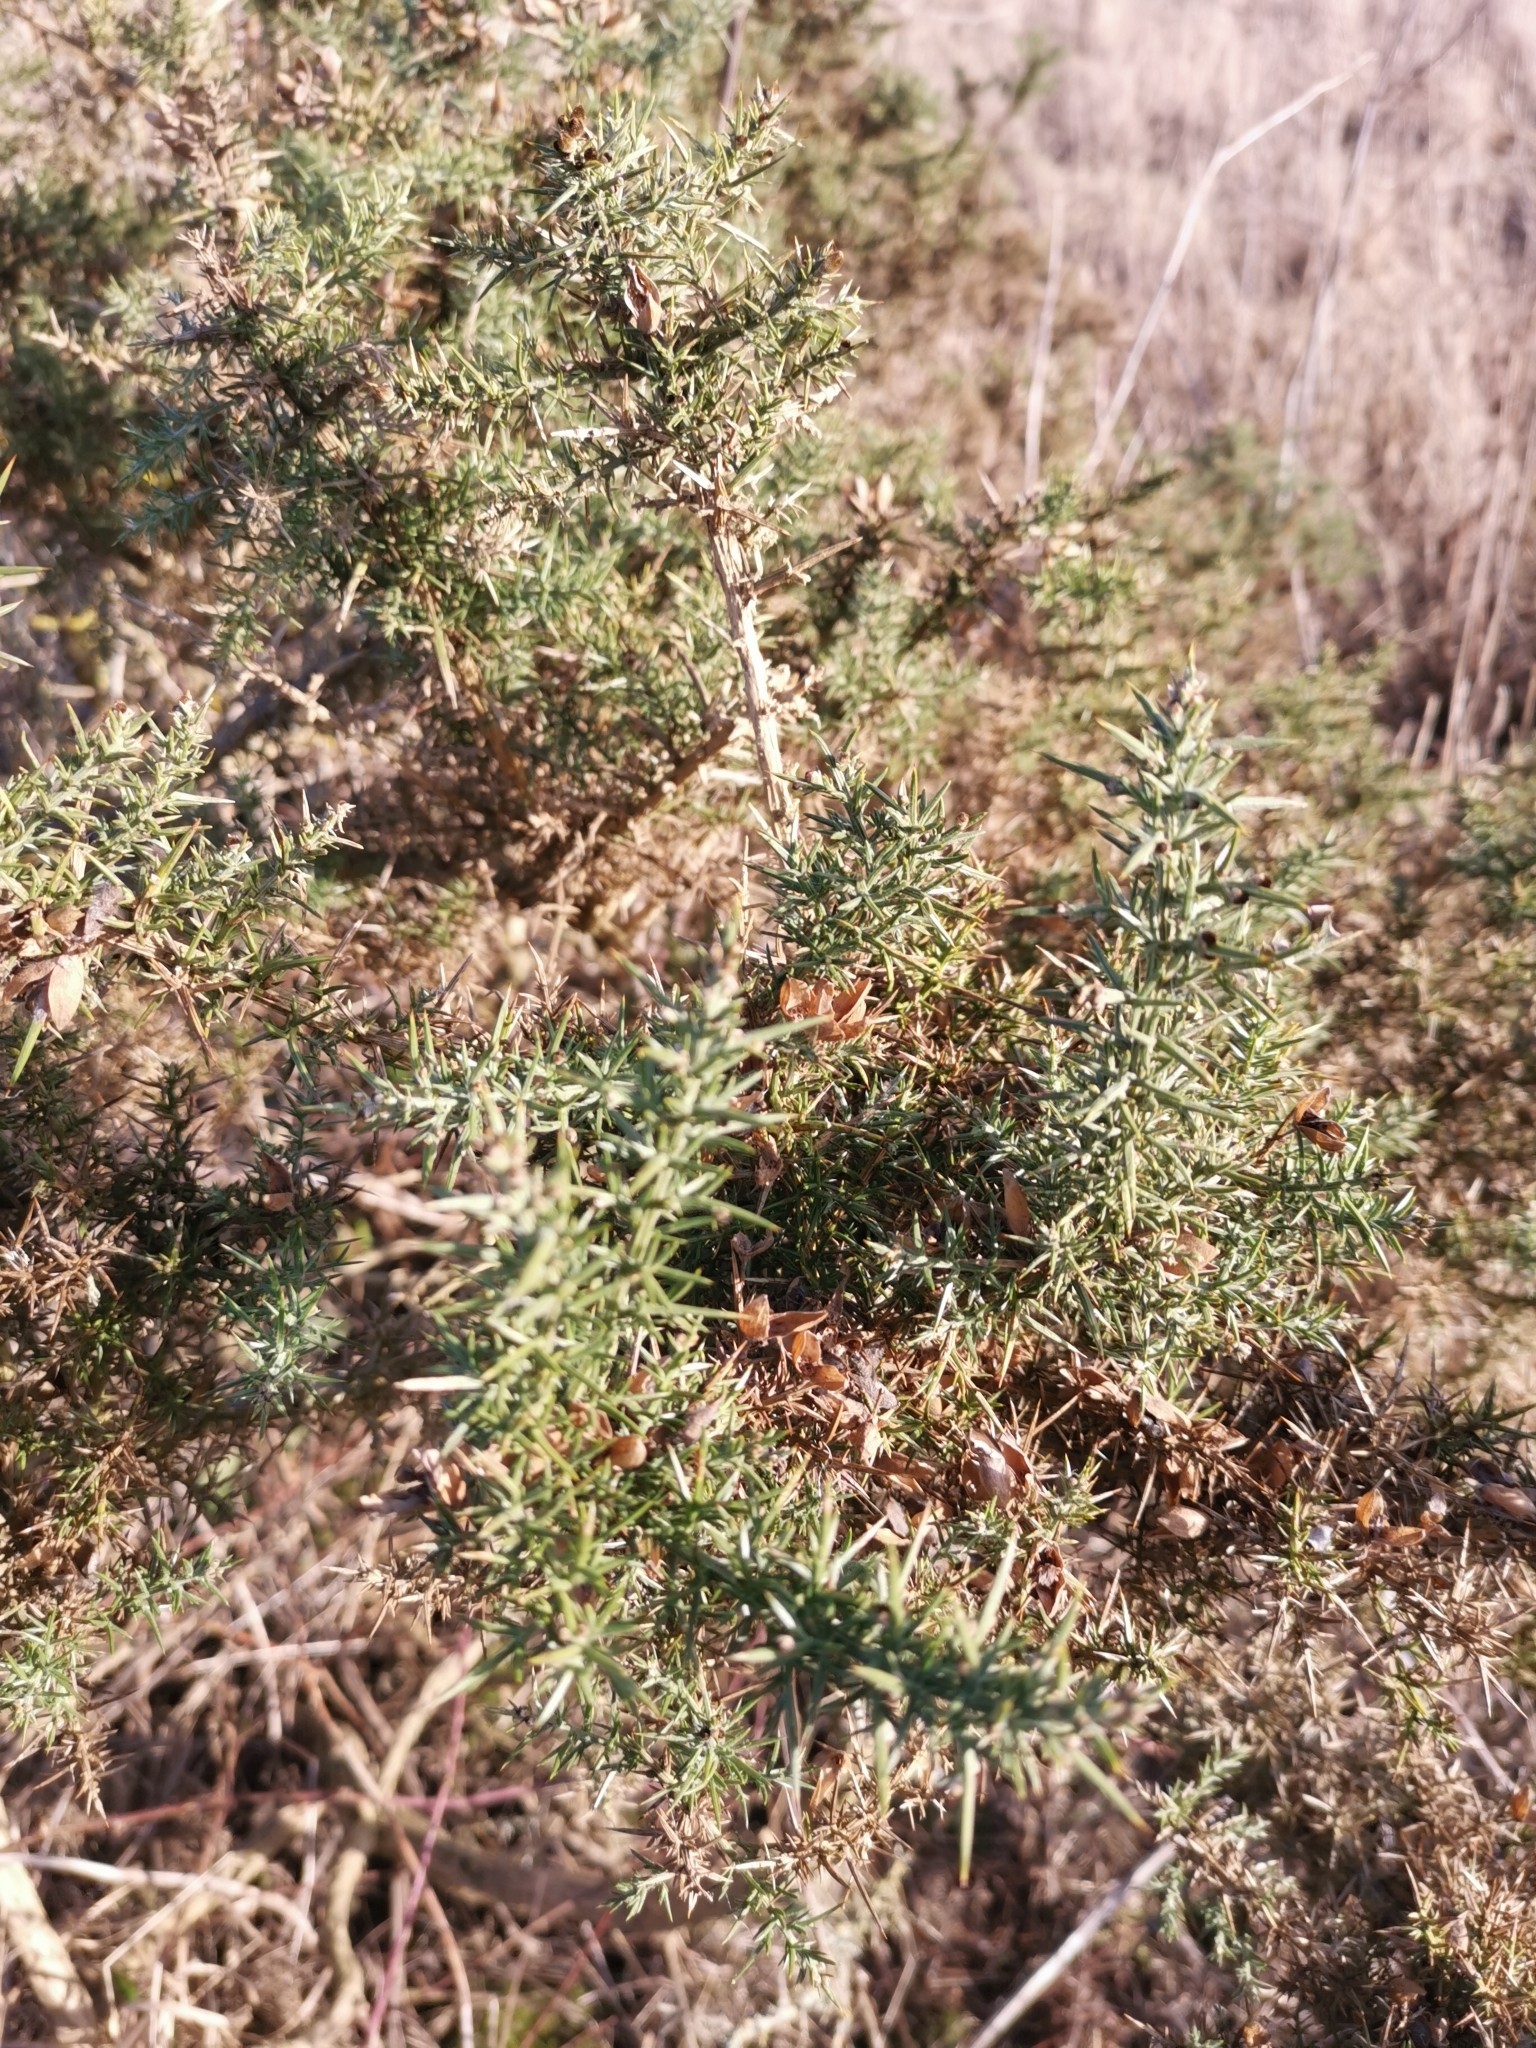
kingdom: Plantae
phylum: Tracheophyta
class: Magnoliopsida
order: Fabales
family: Fabaceae
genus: Ulex
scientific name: Ulex europaeus
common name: Common gorse
